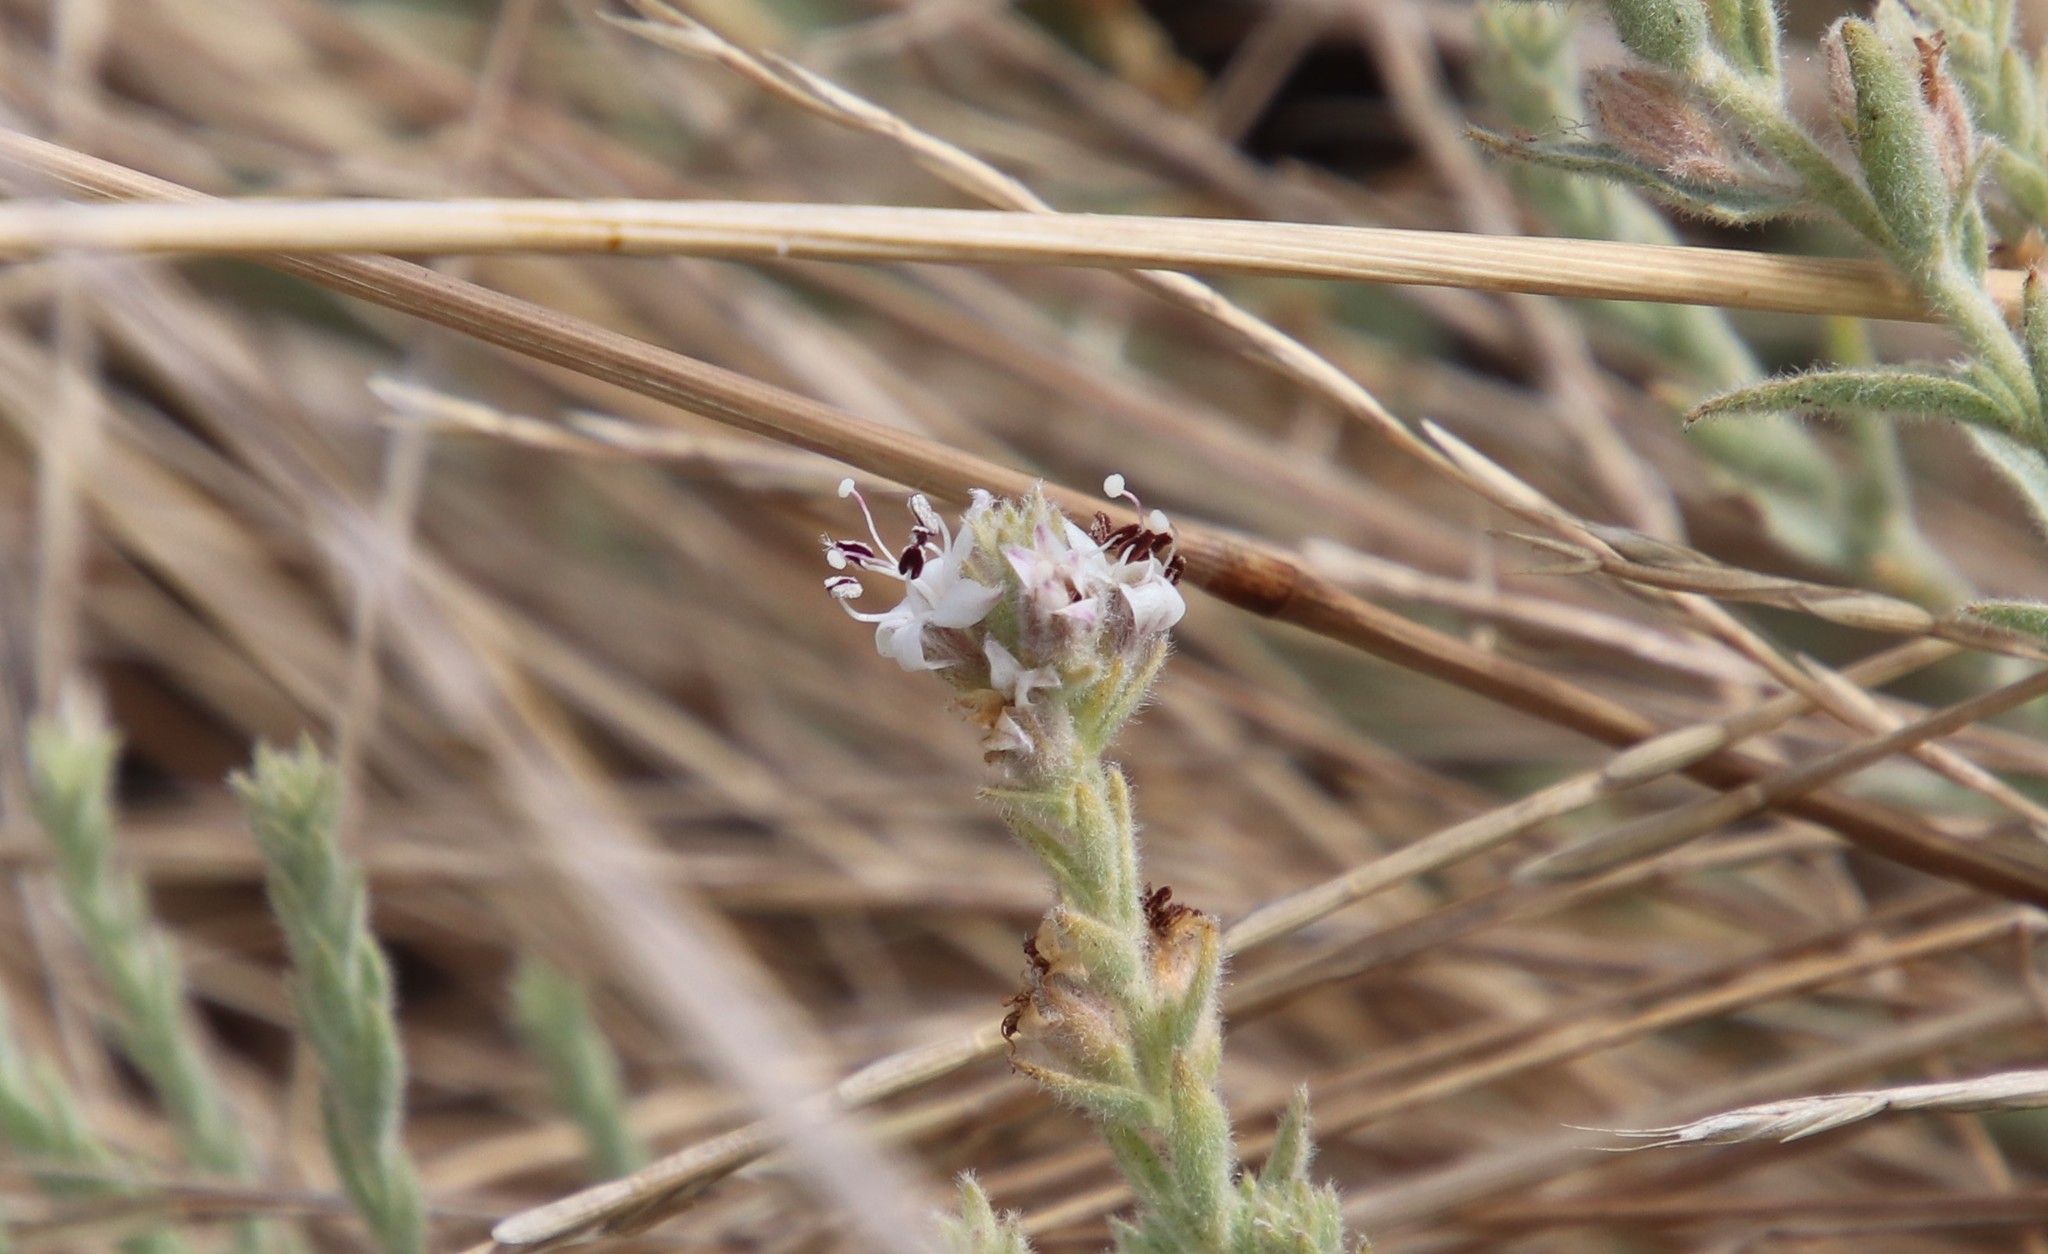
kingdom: Plantae
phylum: Tracheophyta
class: Magnoliopsida
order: Solanales
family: Convolvulaceae
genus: Cressa
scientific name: Cressa truxillensis
